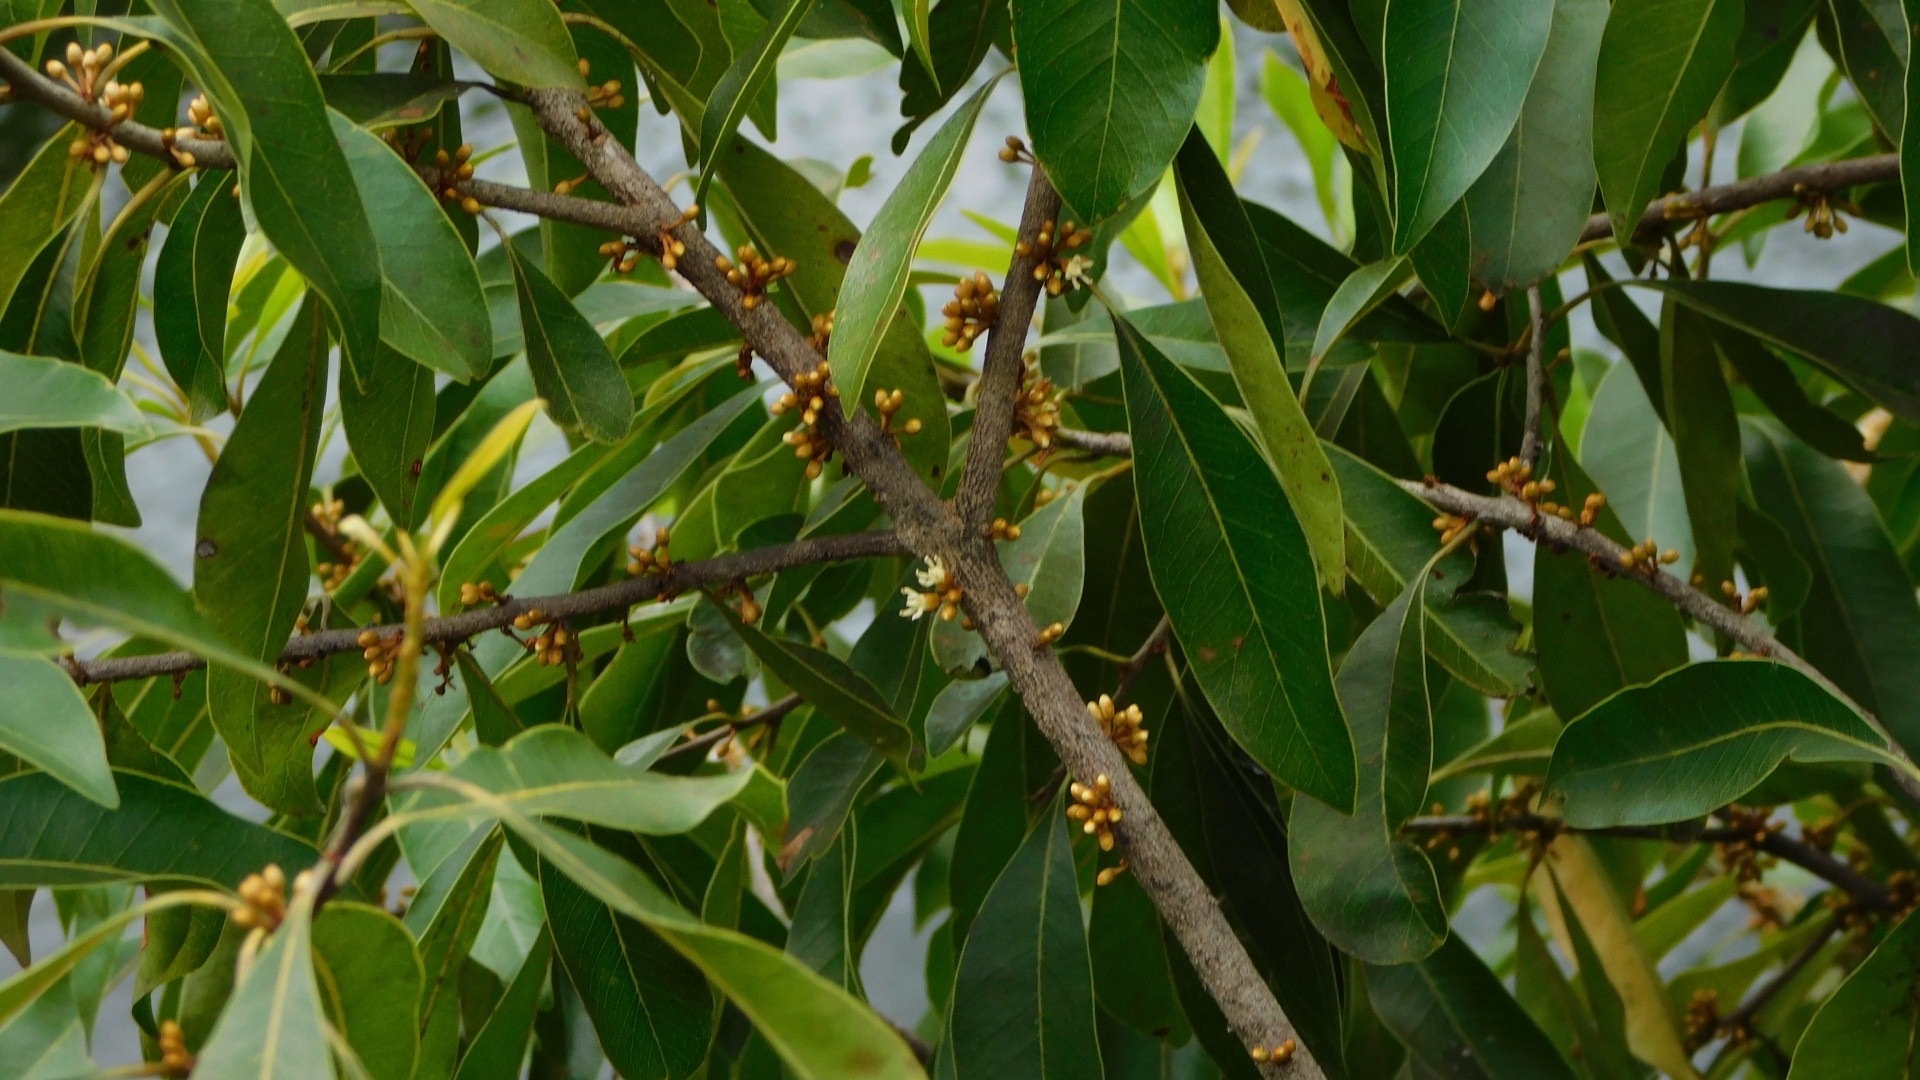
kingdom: Plantae
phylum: Tracheophyta
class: Magnoliopsida
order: Ericales
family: Sapotaceae
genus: Sideroxylon
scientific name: Sideroxylon salicifolium
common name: White bully
